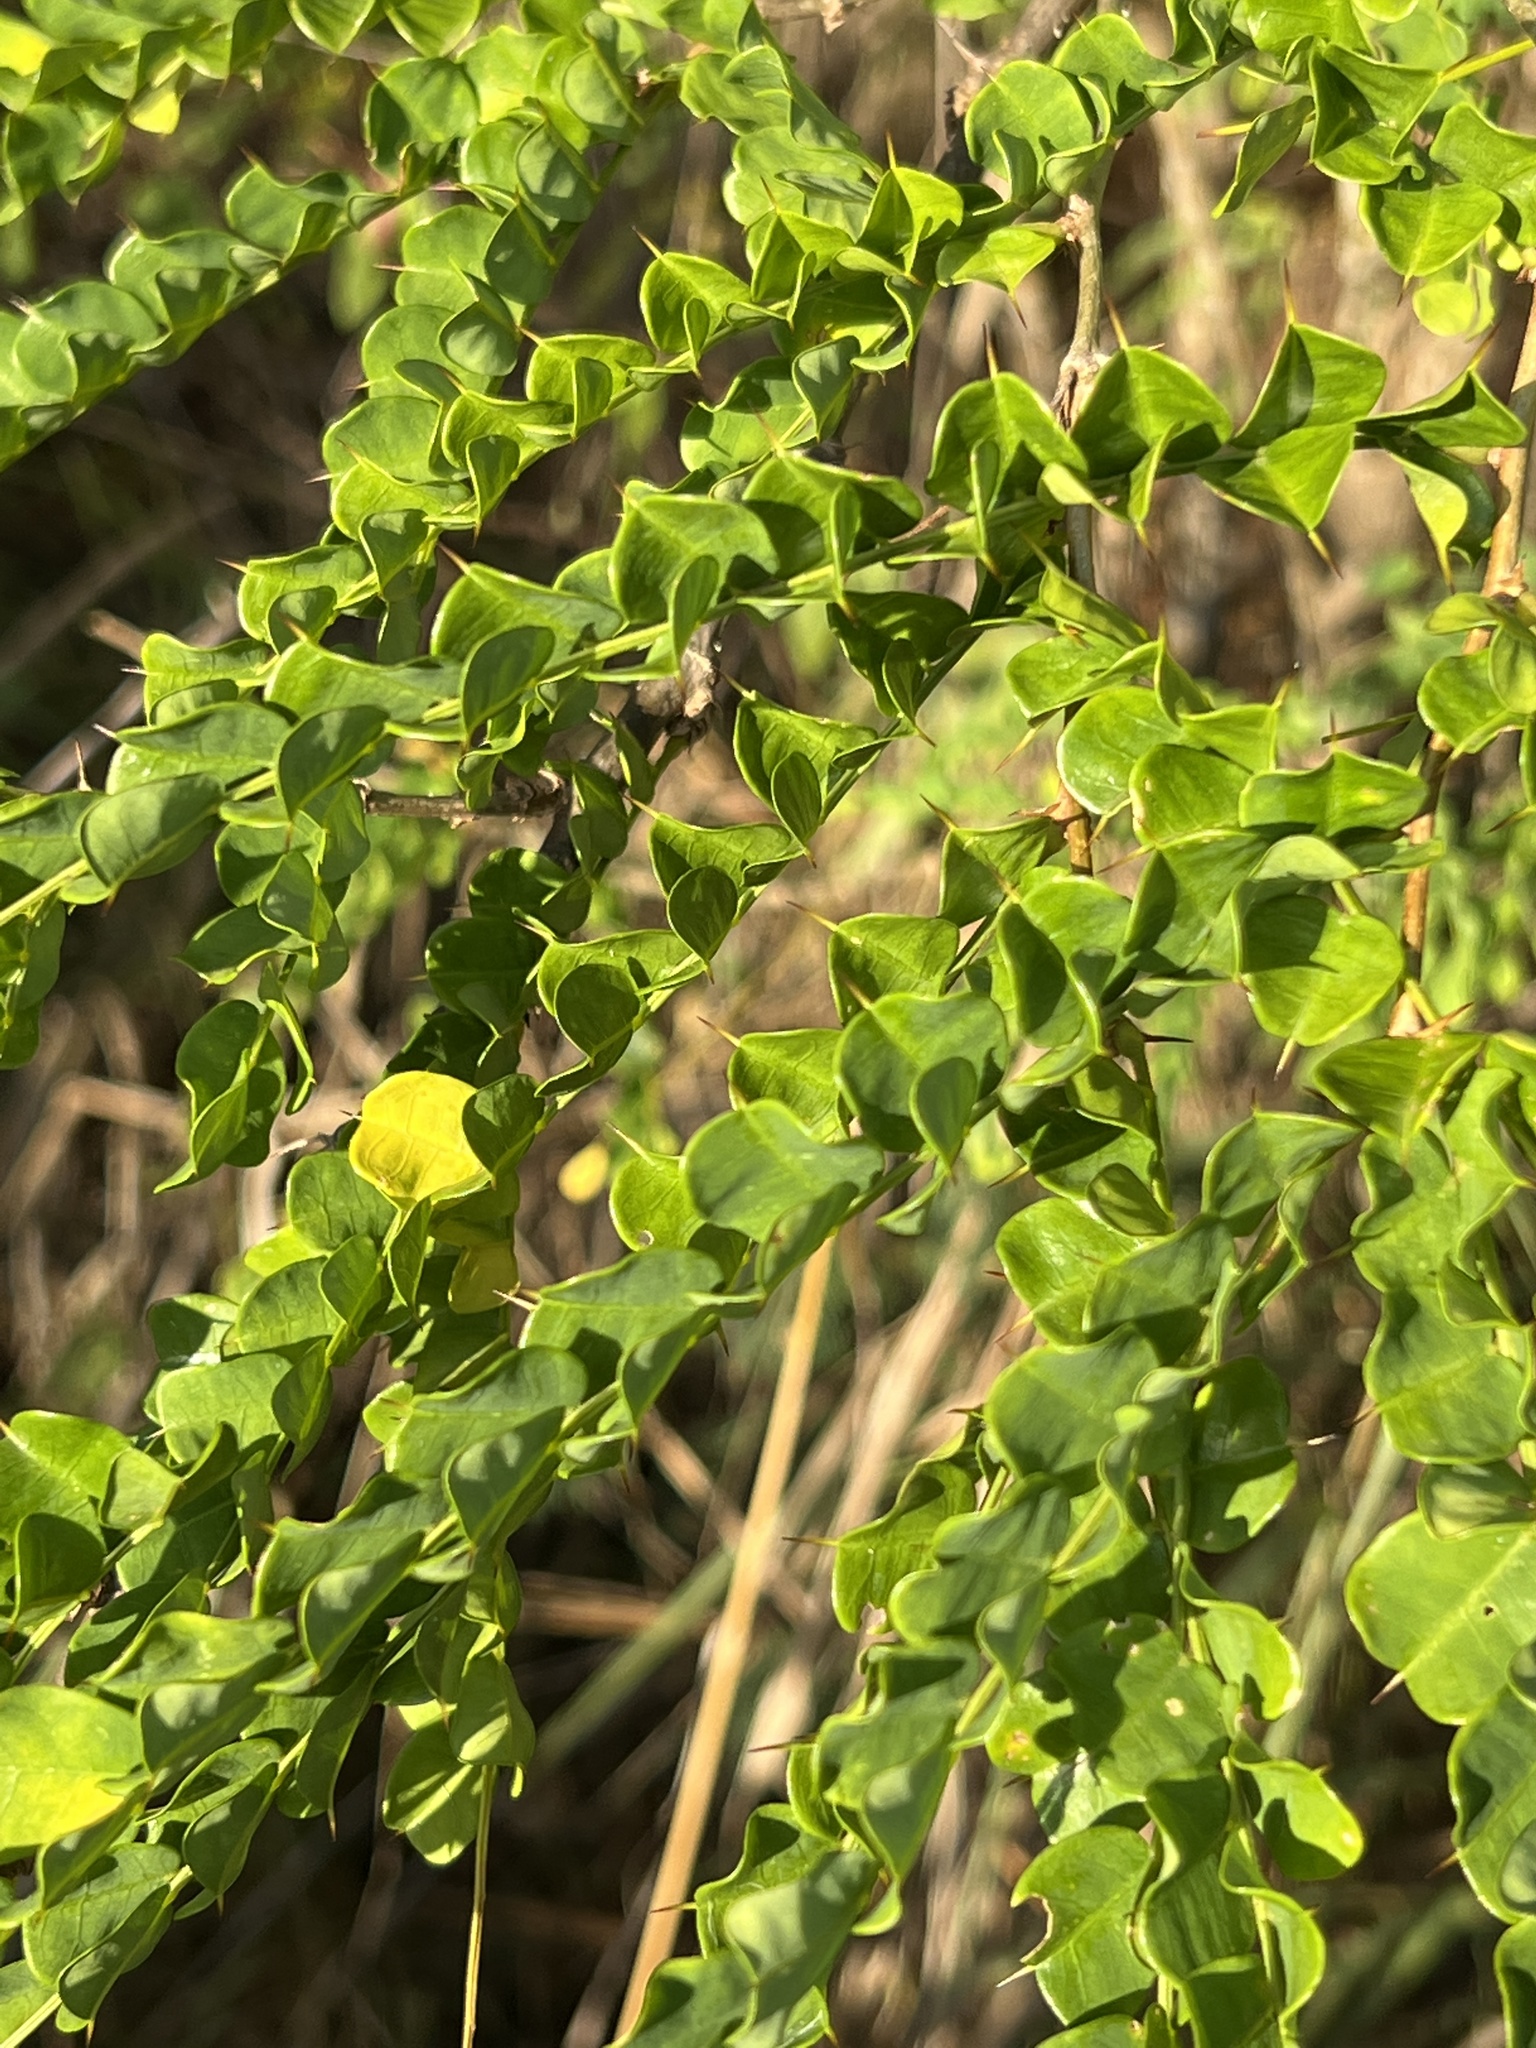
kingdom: Plantae
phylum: Tracheophyta
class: Magnoliopsida
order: Fabales
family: Fabaceae
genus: Pictetia
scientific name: Pictetia aculeata
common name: Fustic
